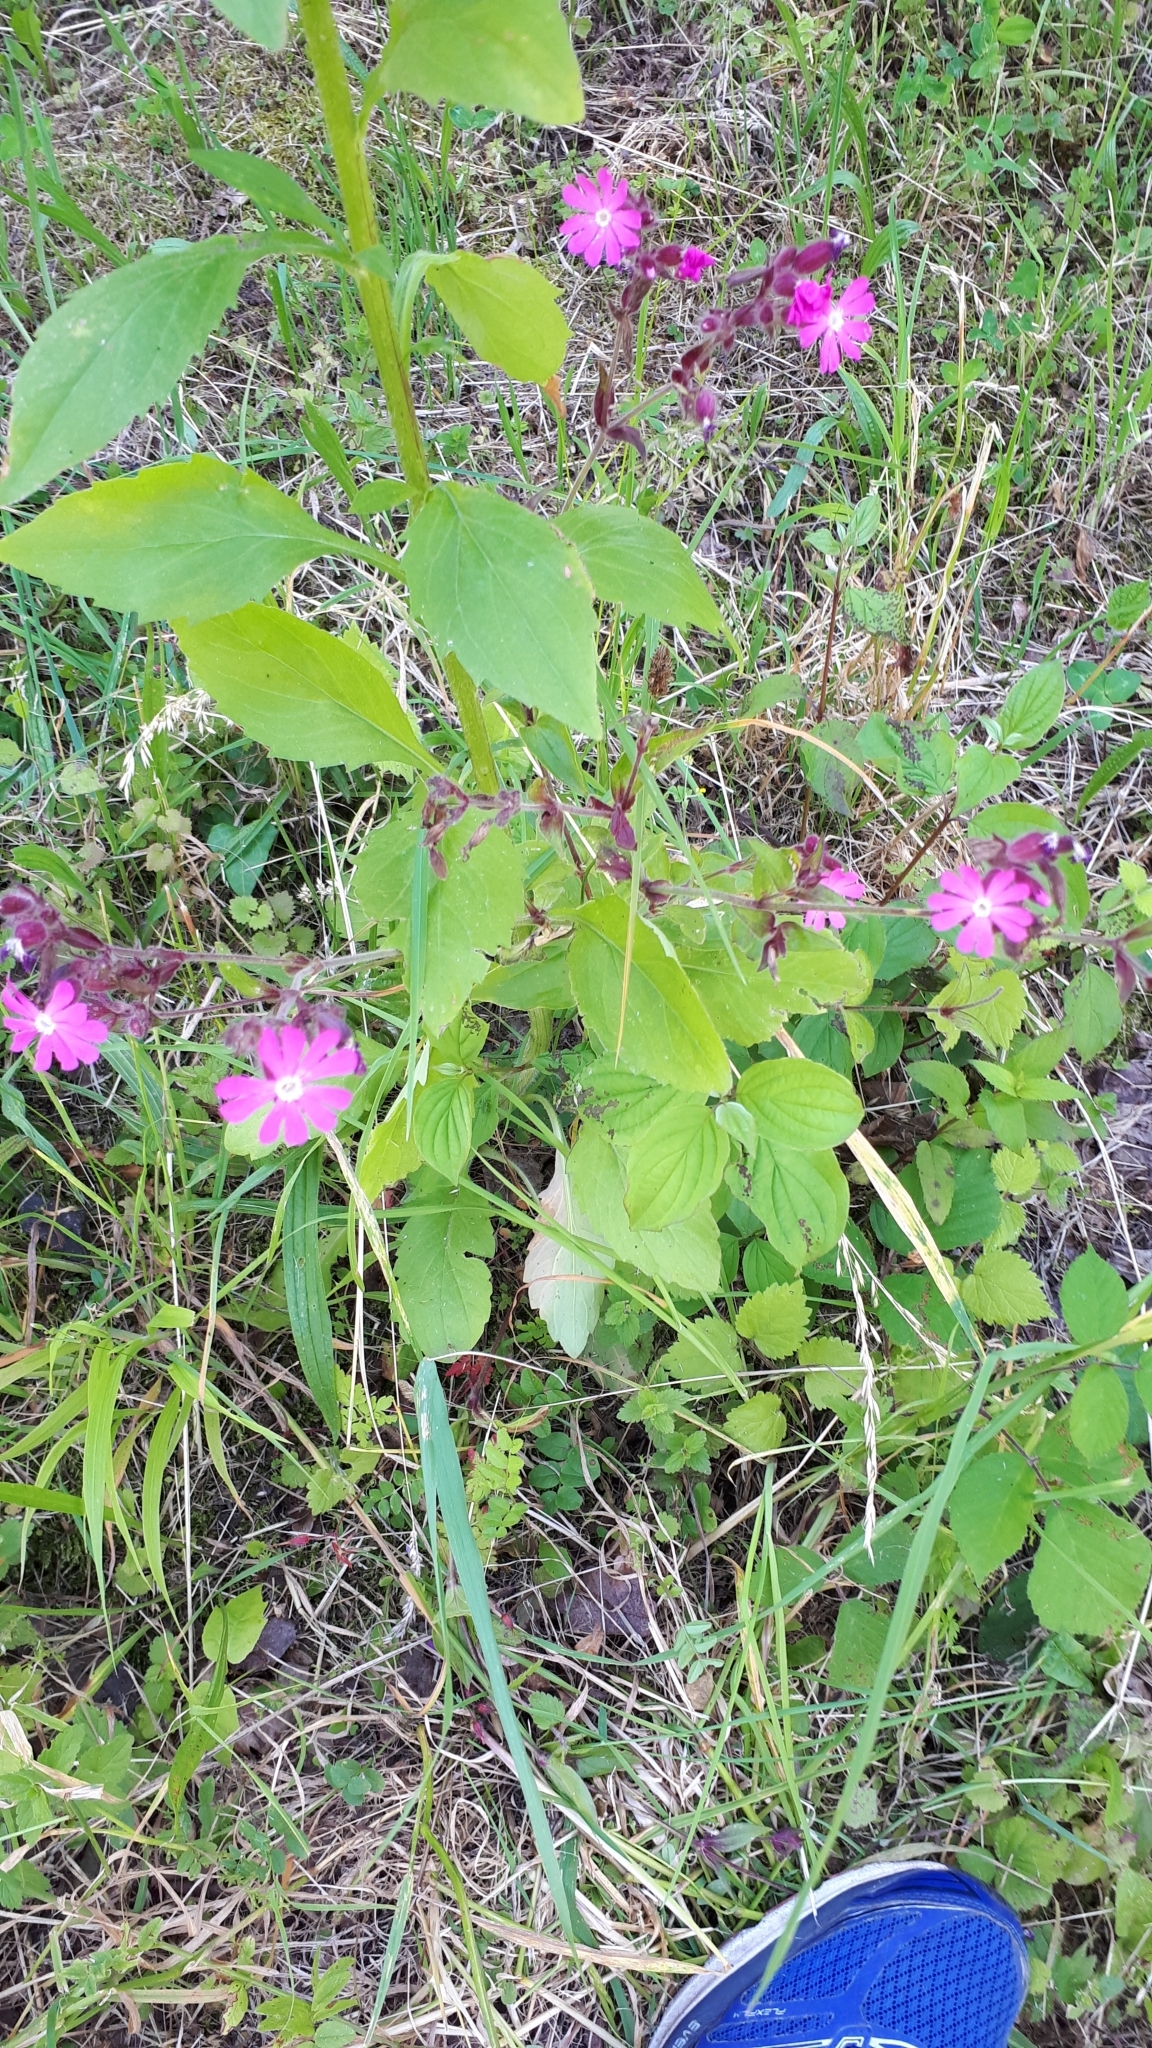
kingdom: Plantae
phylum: Tracheophyta
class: Magnoliopsida
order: Caryophyllales
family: Caryophyllaceae
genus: Silene
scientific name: Silene dioica
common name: Red campion
